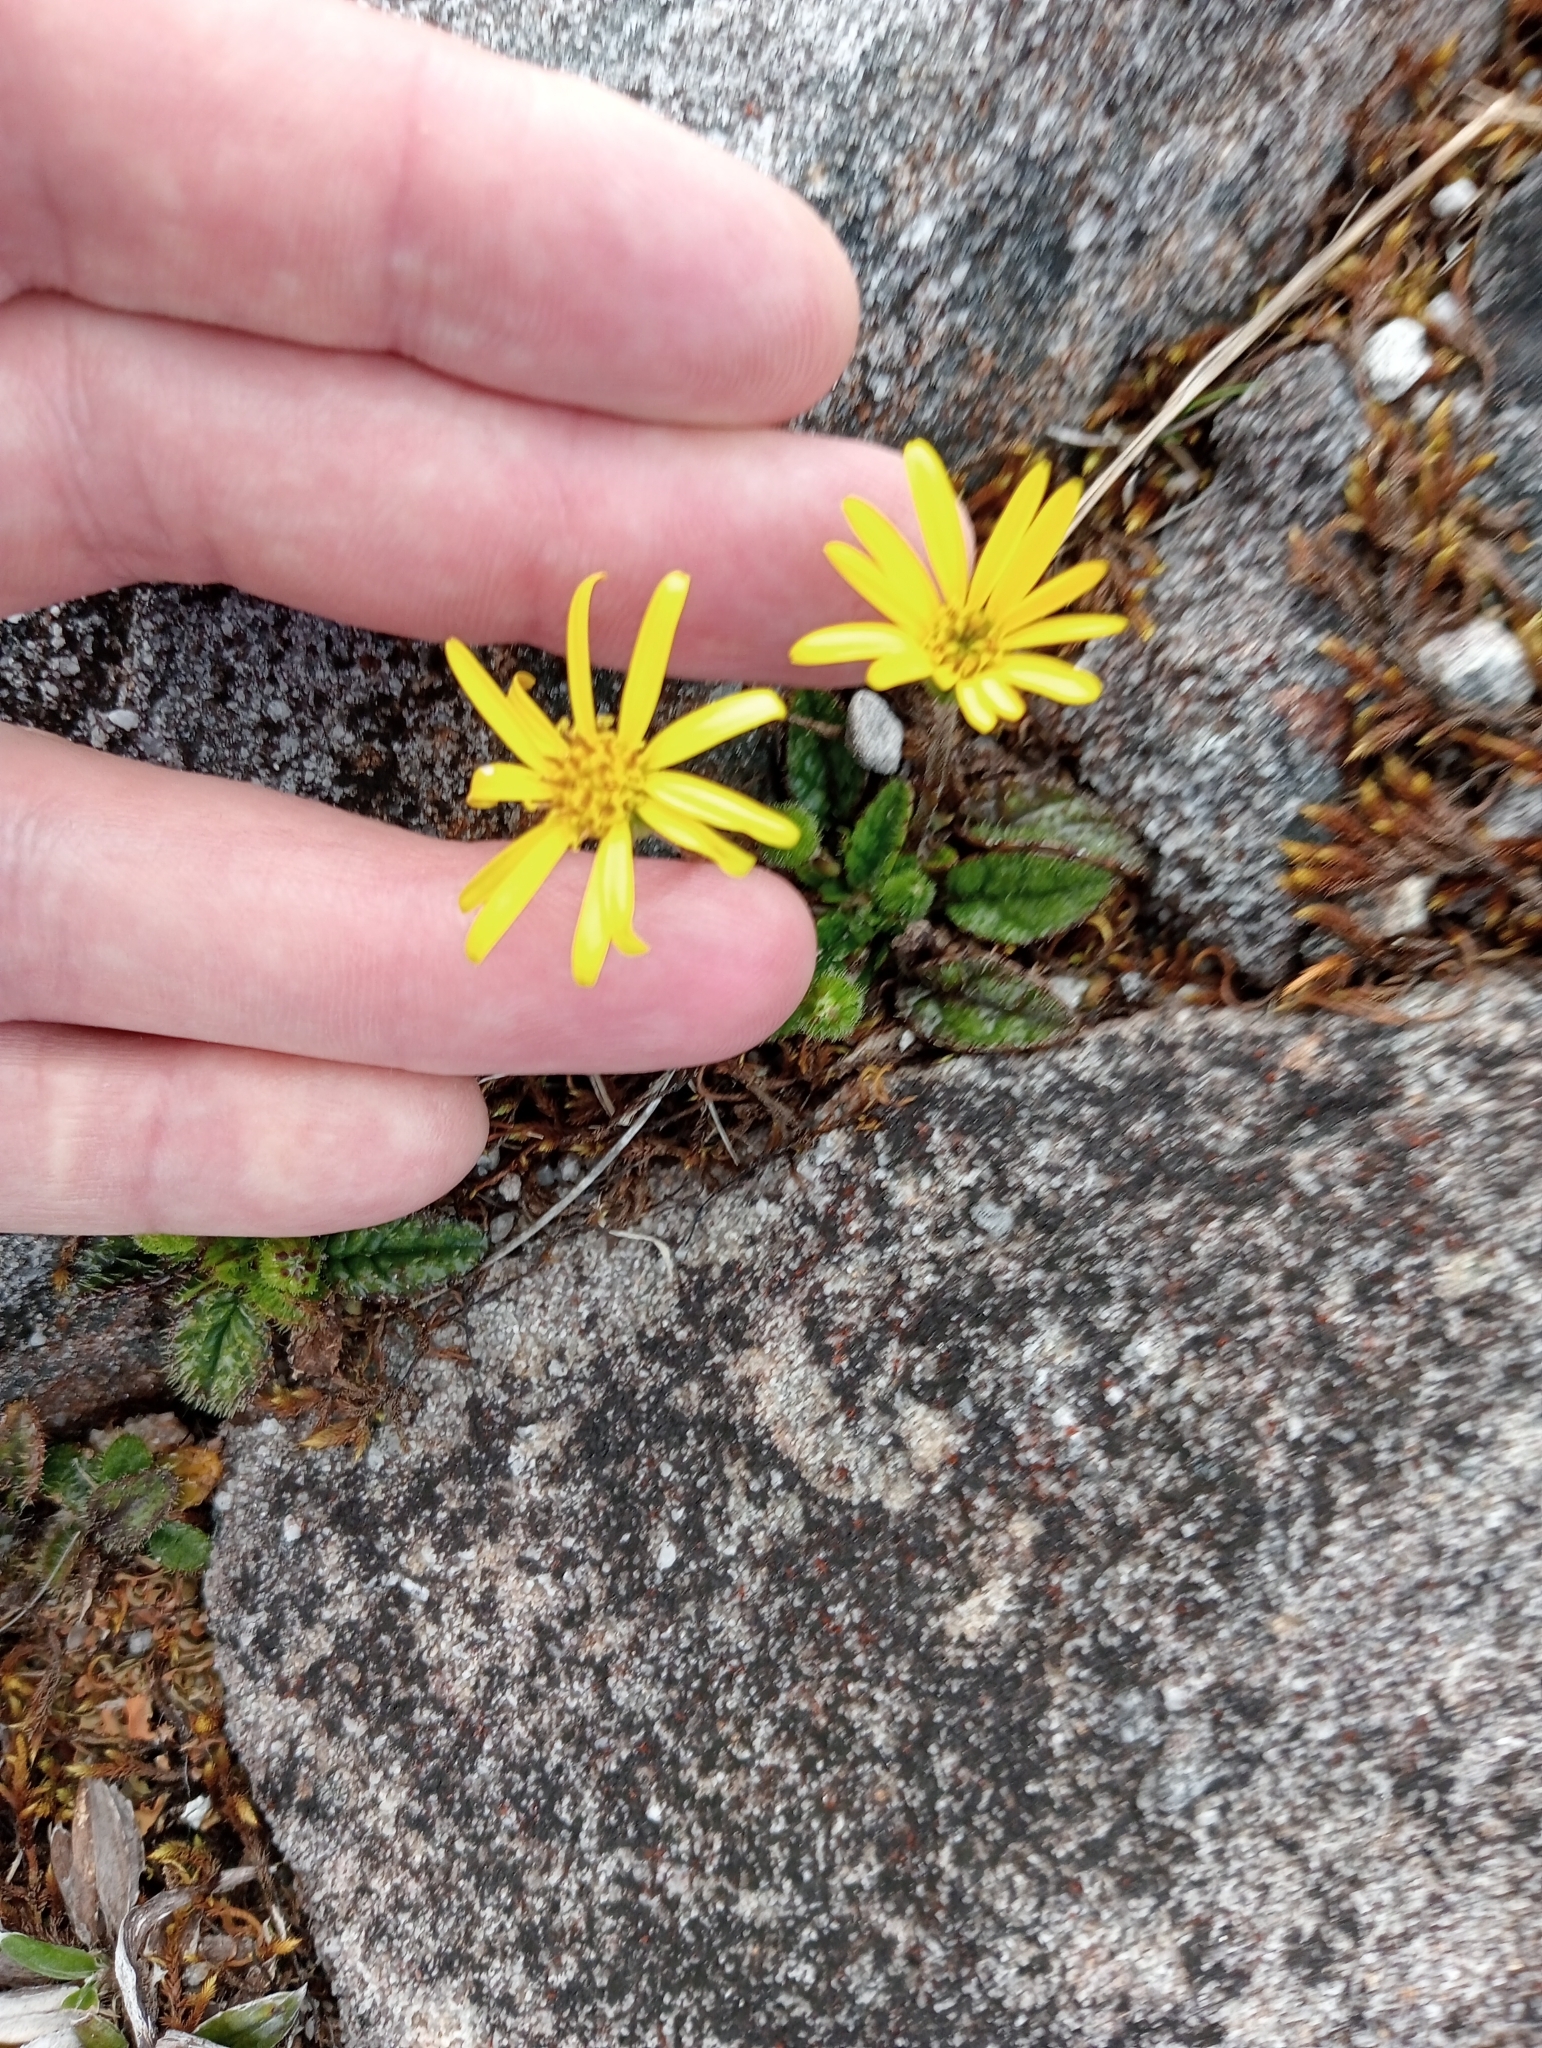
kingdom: Plantae
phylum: Tracheophyta
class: Magnoliopsida
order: Asterales
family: Asteraceae
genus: Brachyglottis
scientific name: Brachyglottis bellidioides
